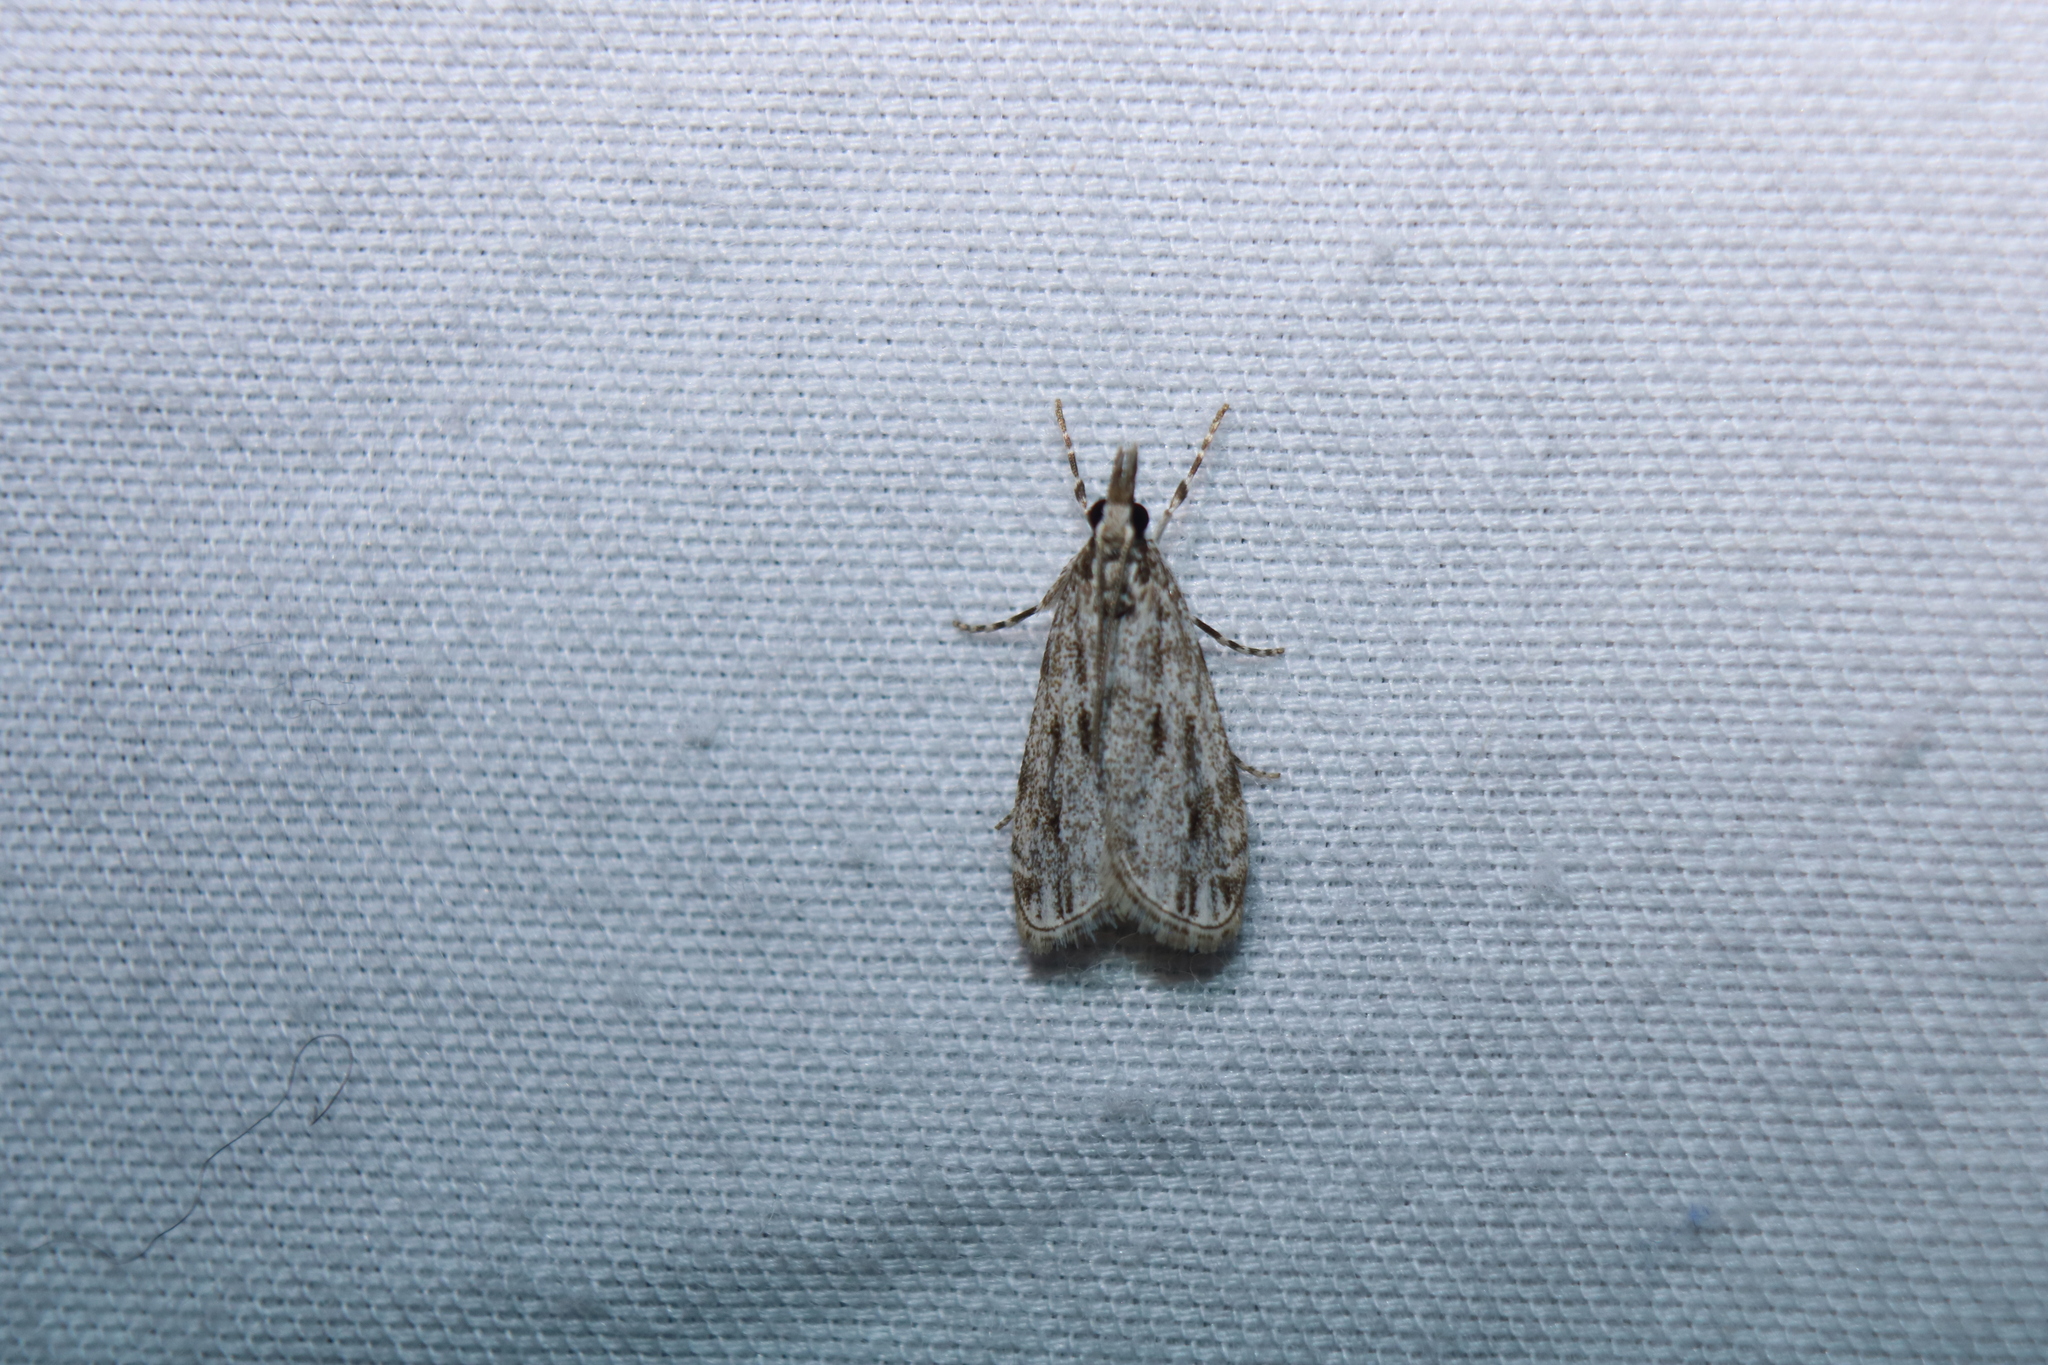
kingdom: Animalia
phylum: Arthropoda
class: Insecta
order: Lepidoptera
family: Crambidae
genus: Eudonia
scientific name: Eudonia strigalis
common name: Striped eudonia moth
